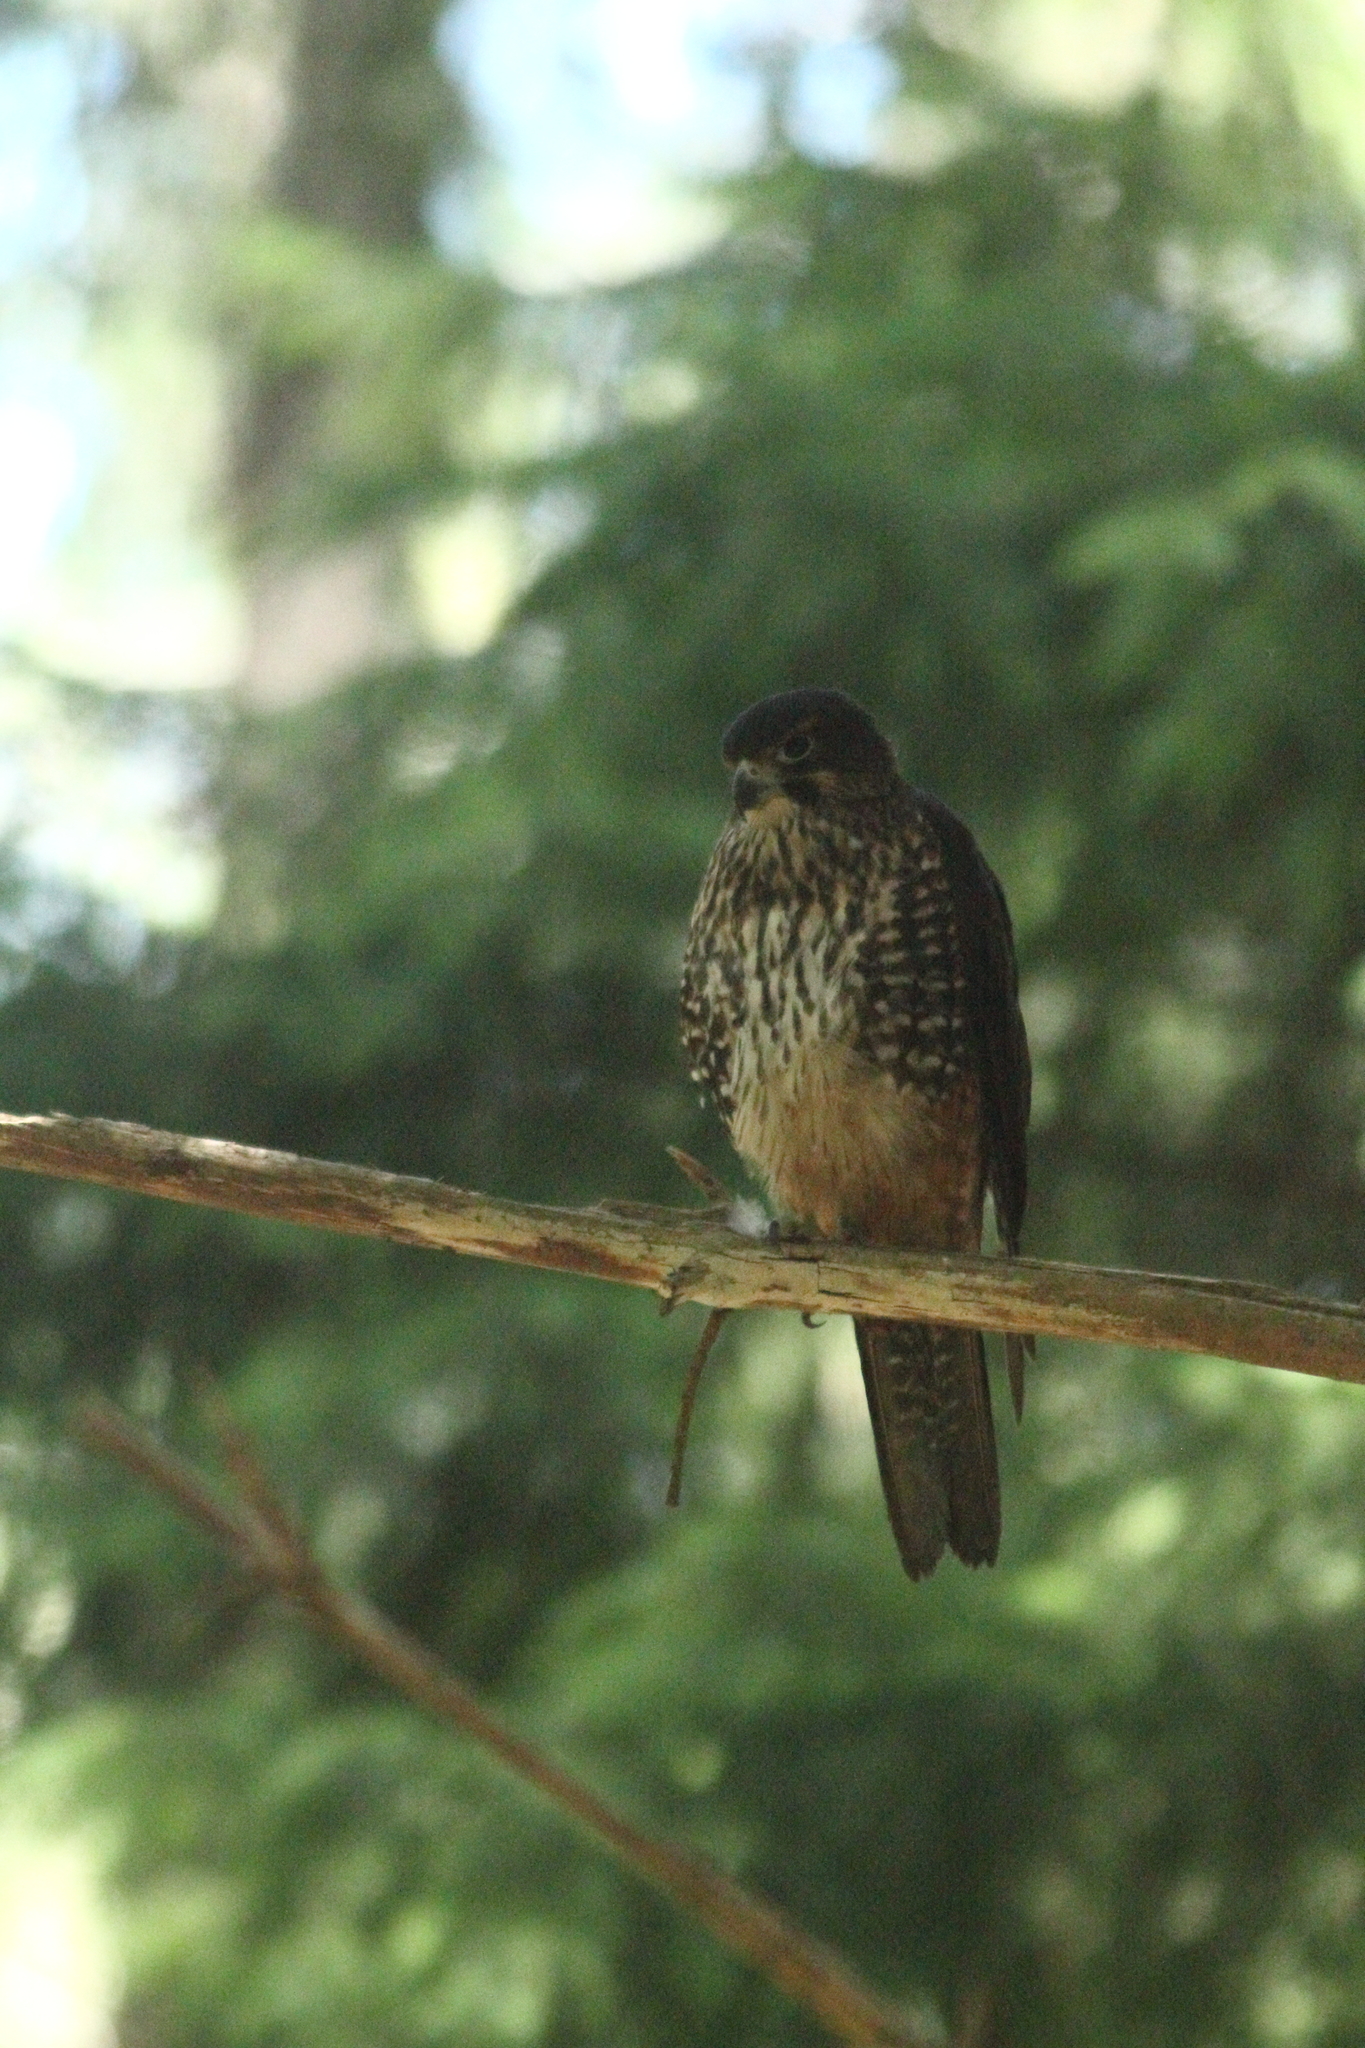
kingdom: Animalia
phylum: Chordata
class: Aves
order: Falconiformes
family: Falconidae
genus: Falco
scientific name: Falco novaeseelandiae
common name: New zealand falcon
